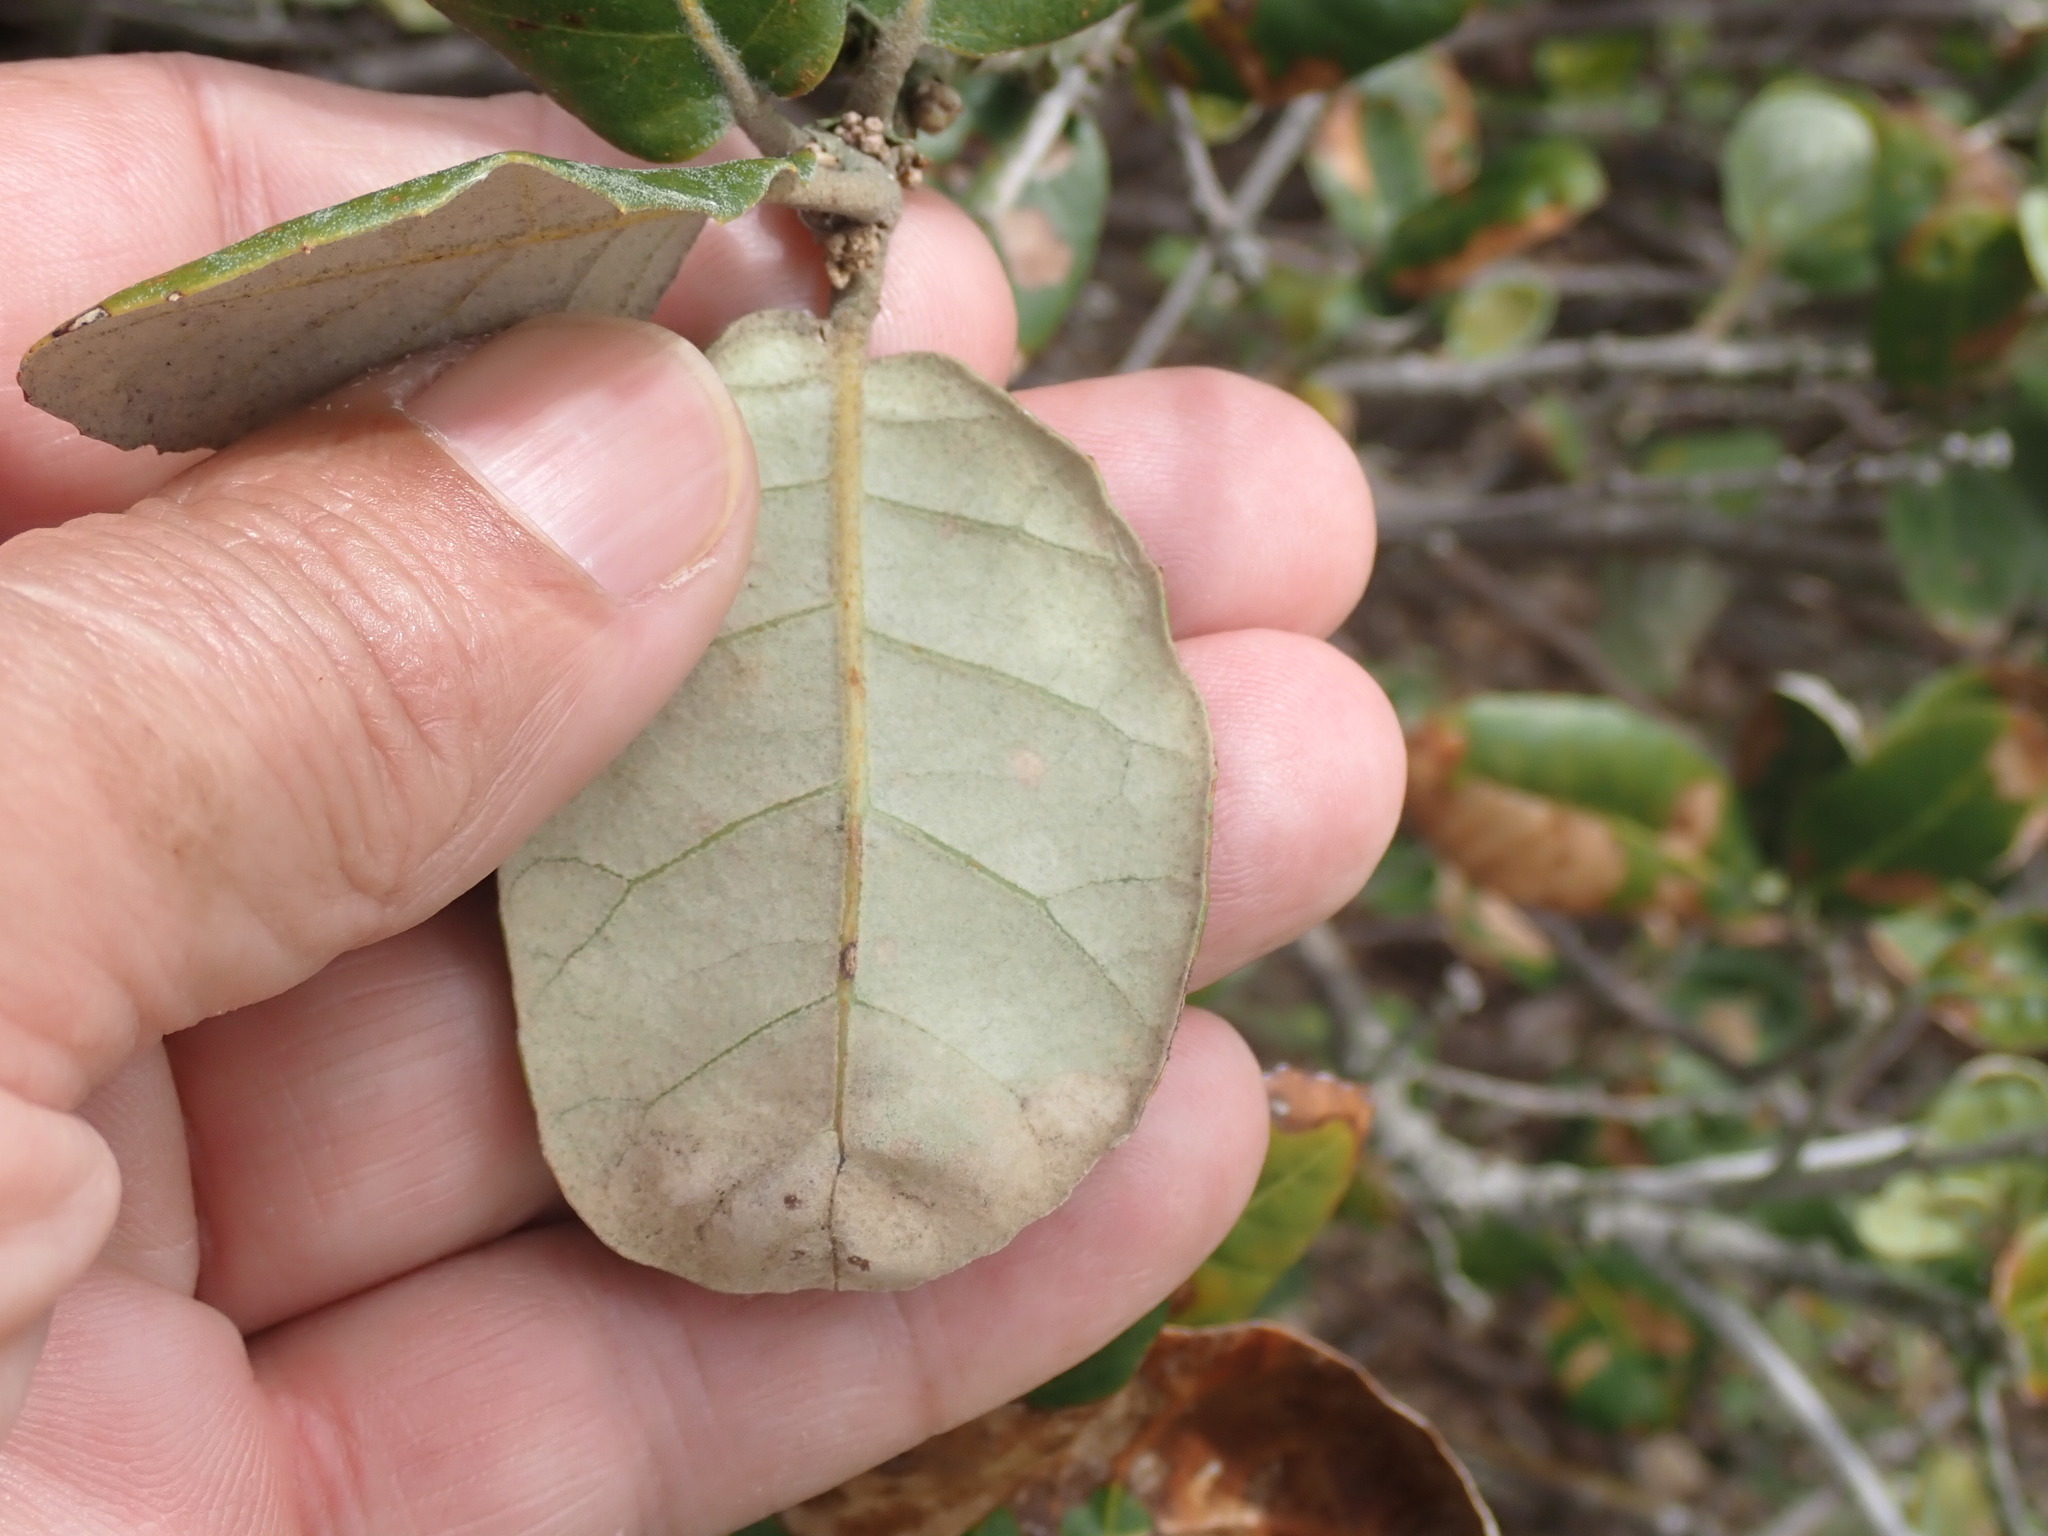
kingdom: Plantae
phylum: Tracheophyta
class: Magnoliopsida
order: Fagales
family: Fagaceae
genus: Quercus
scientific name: Quercus ilex
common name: Evergreen oak
